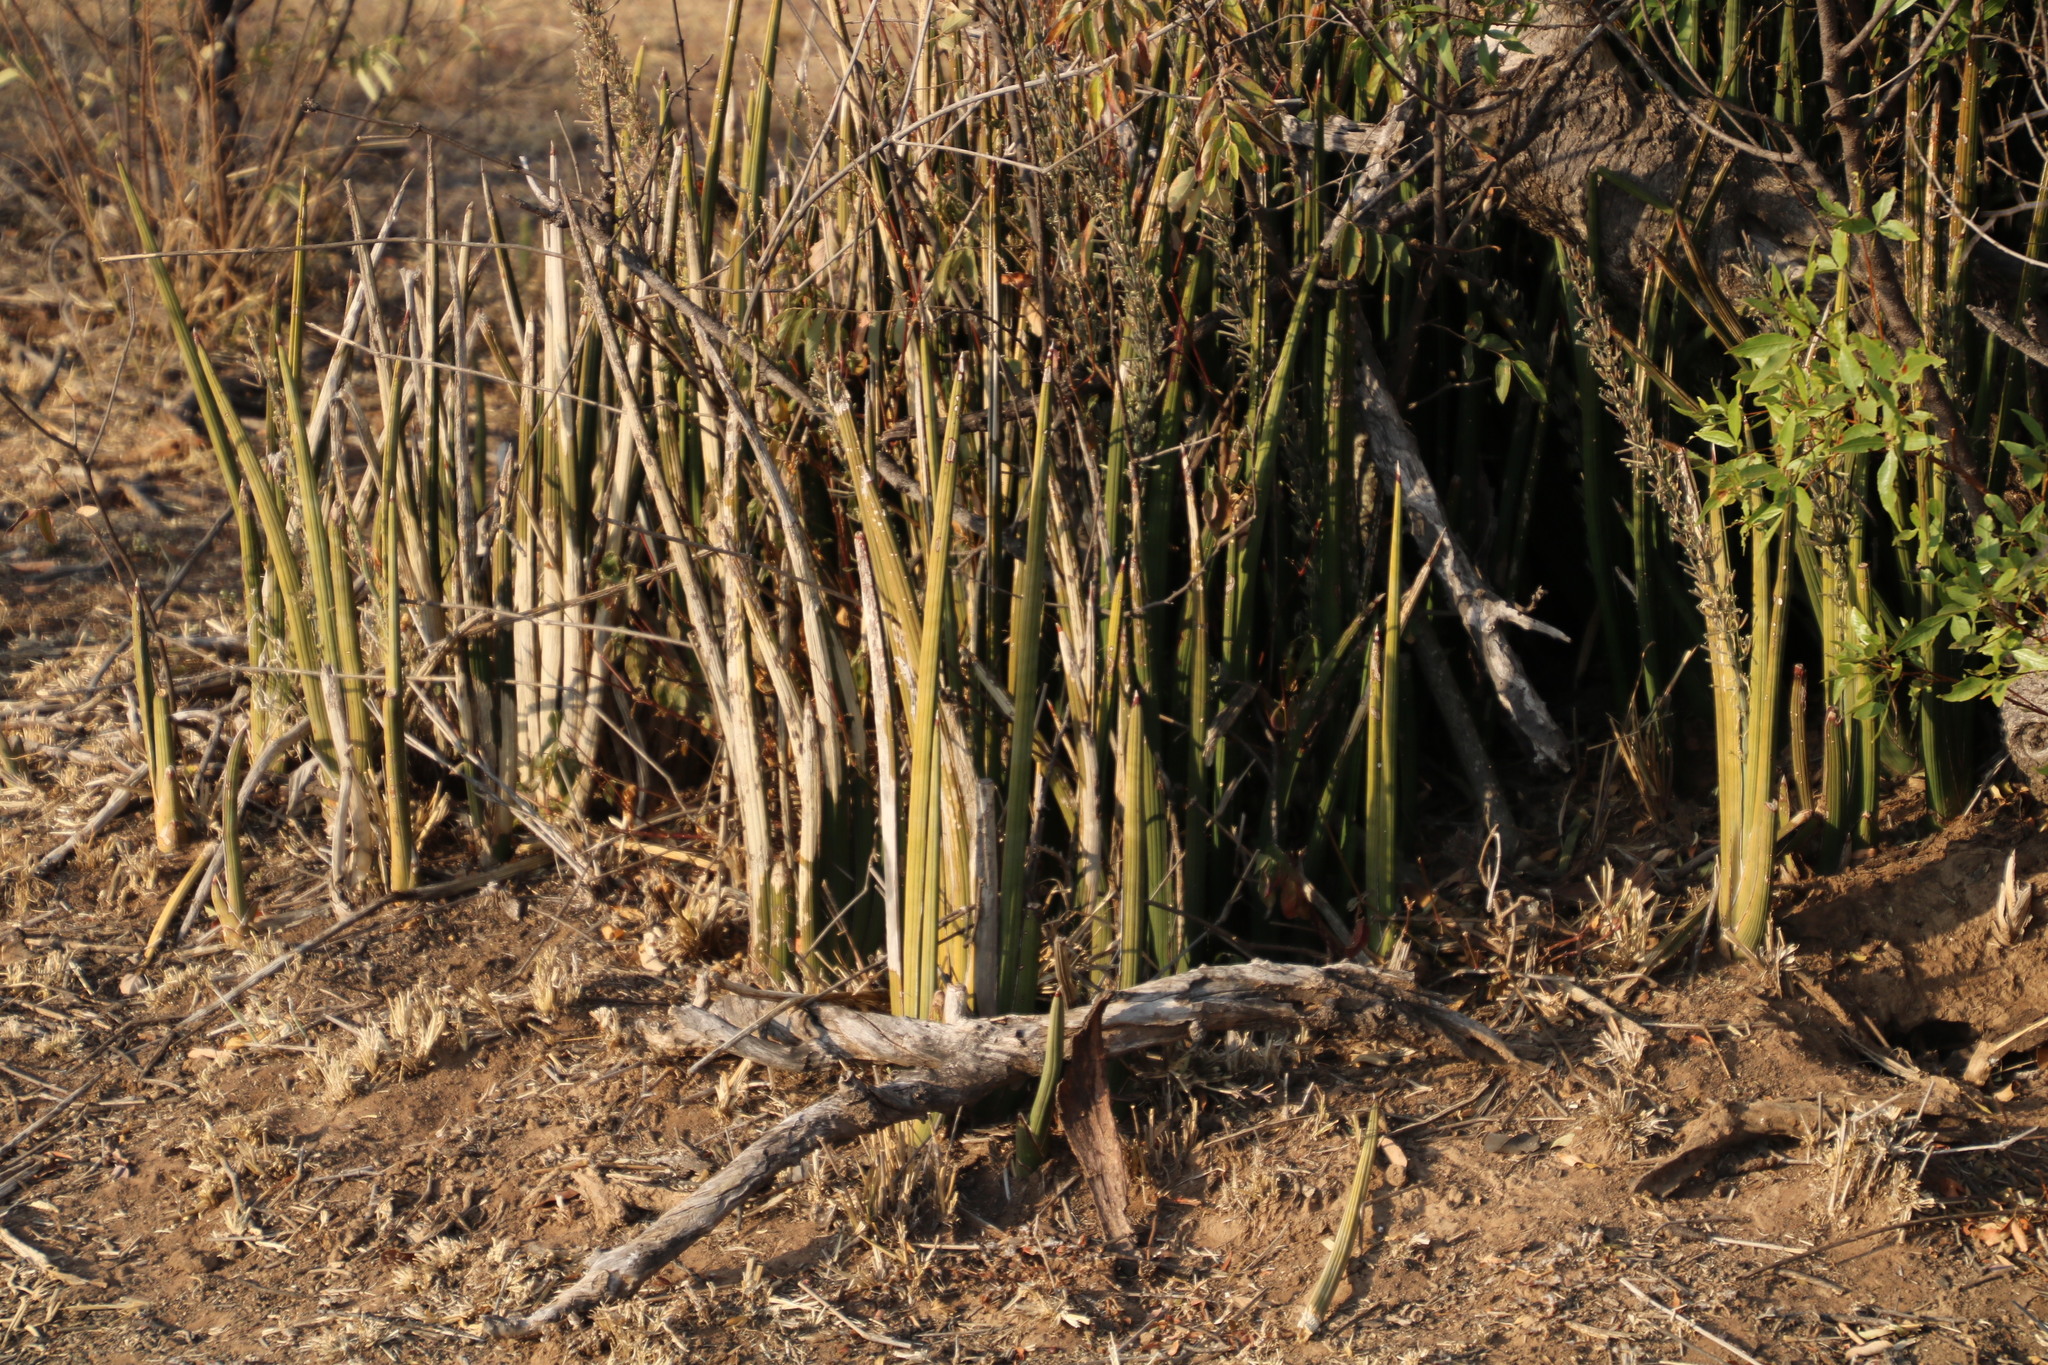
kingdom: Plantae
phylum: Tracheophyta
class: Liliopsida
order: Asparagales
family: Asparagaceae
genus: Dracaena
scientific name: Dracaena pearsonii
